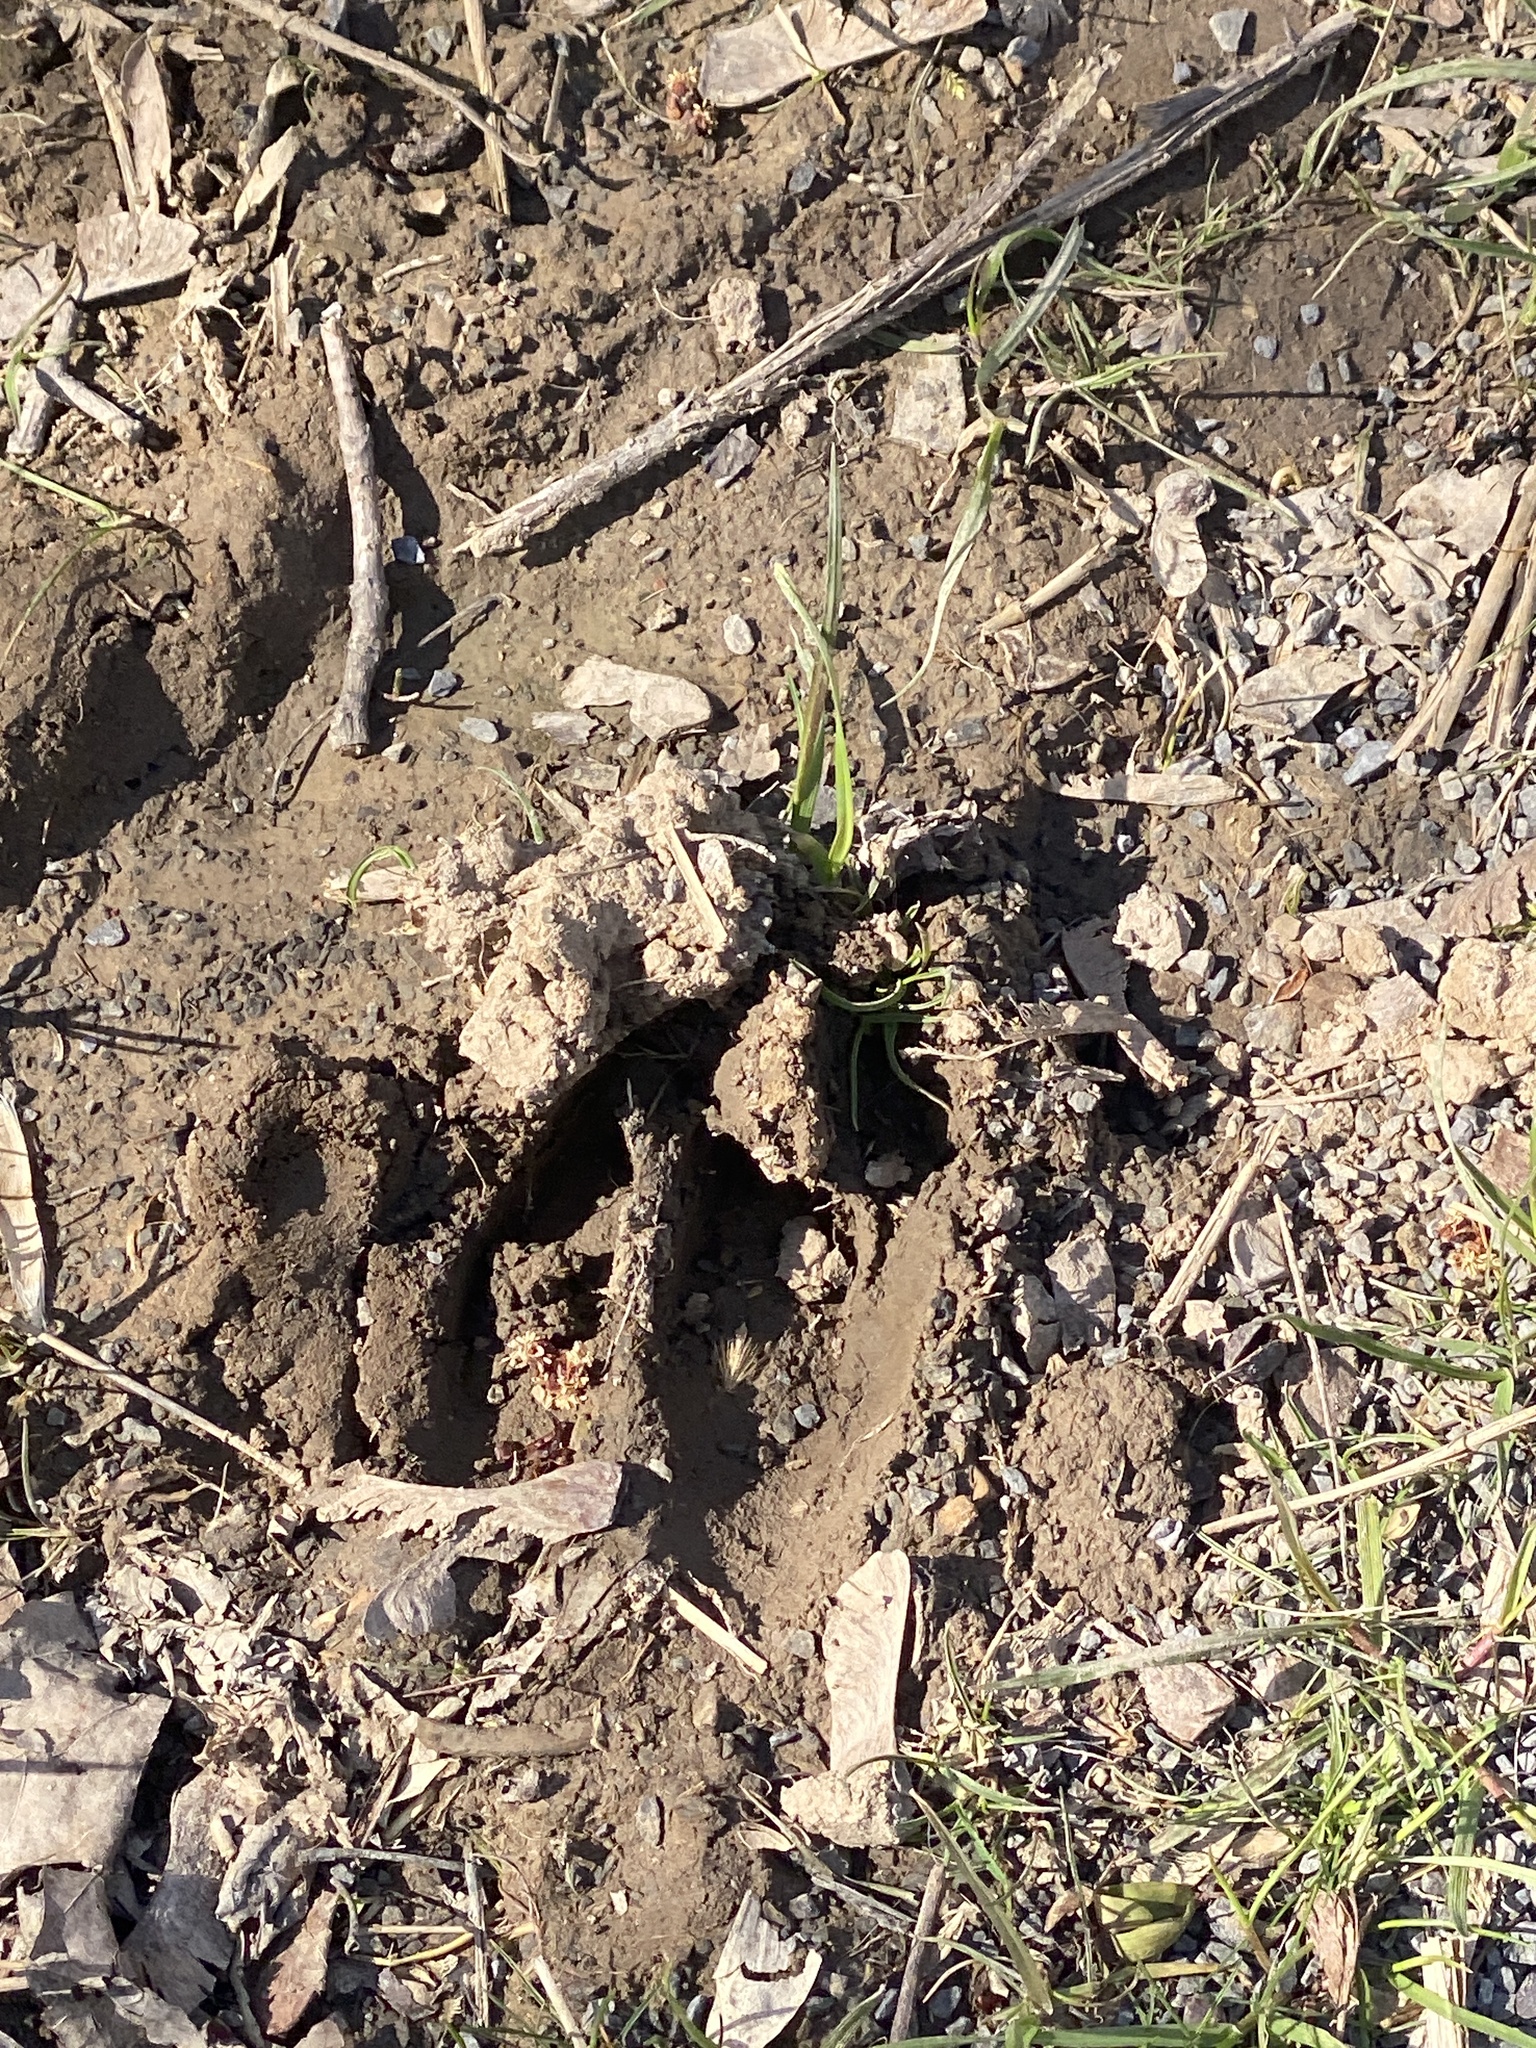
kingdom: Animalia
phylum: Chordata
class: Mammalia
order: Artiodactyla
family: Cervidae
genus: Odocoileus
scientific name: Odocoileus virginianus
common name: White-tailed deer
